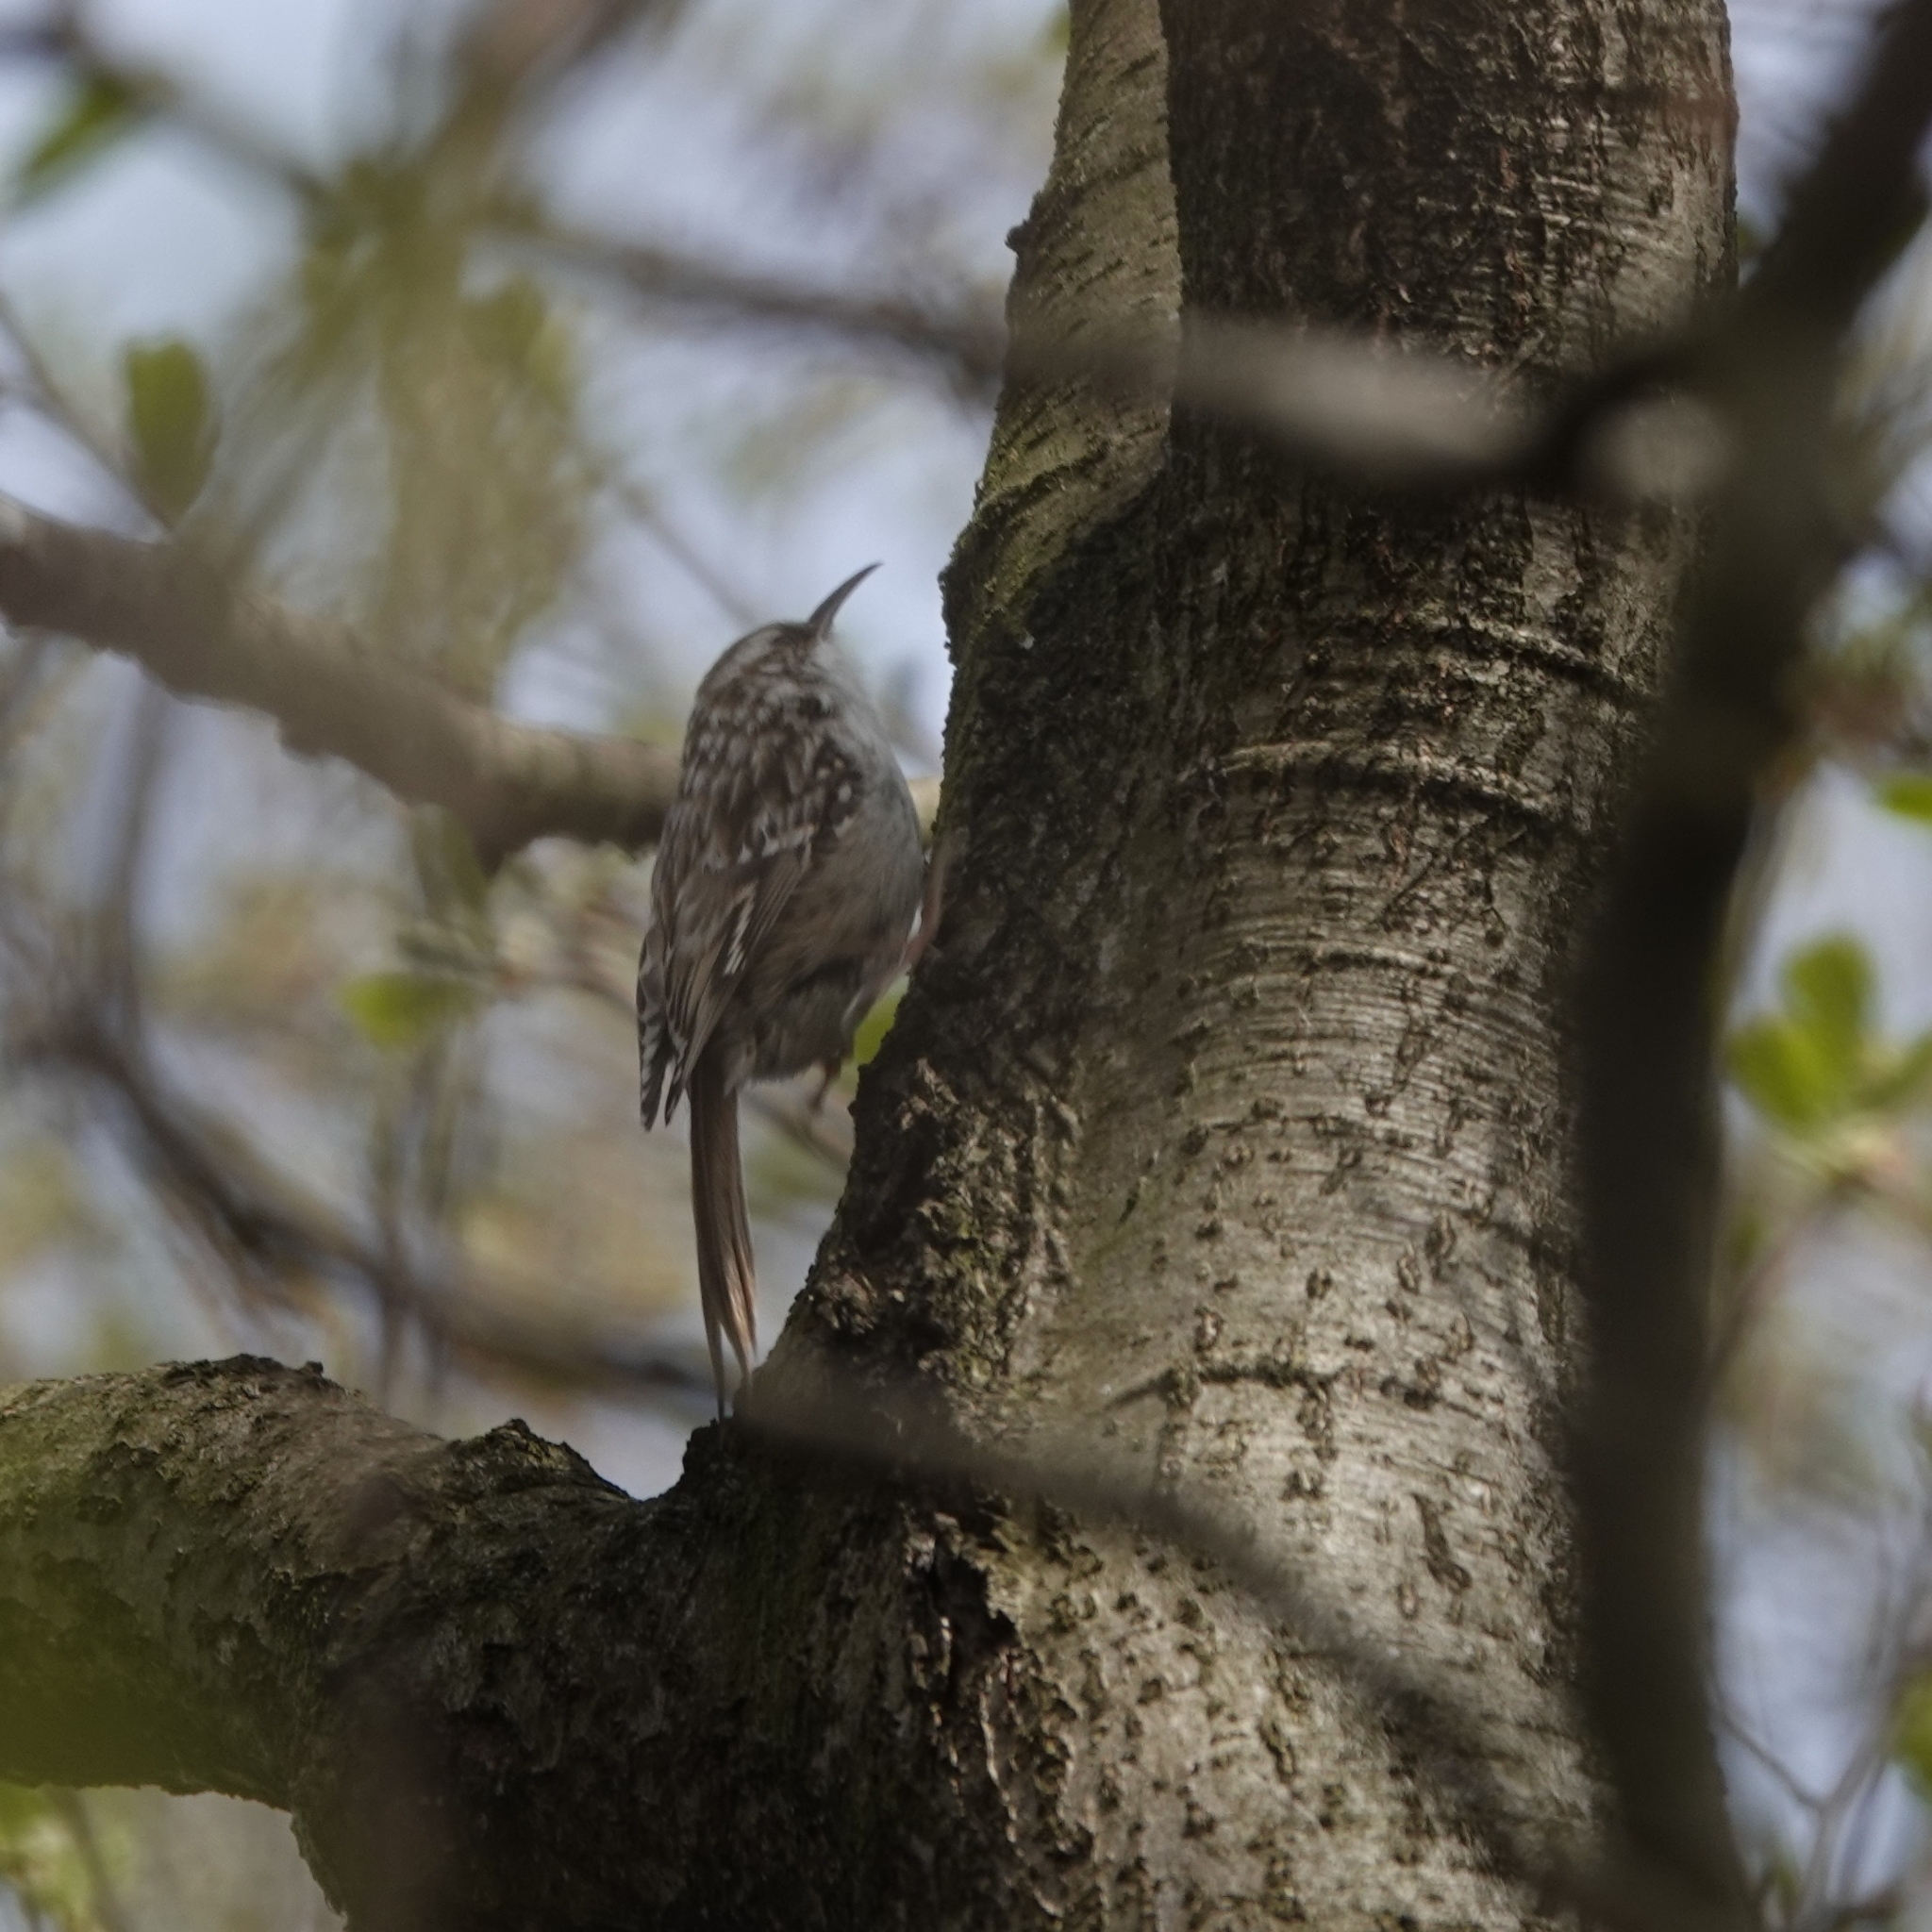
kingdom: Animalia
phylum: Chordata
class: Aves
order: Passeriformes
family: Certhiidae
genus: Certhia
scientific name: Certhia familiaris
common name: Eurasian treecreeper
